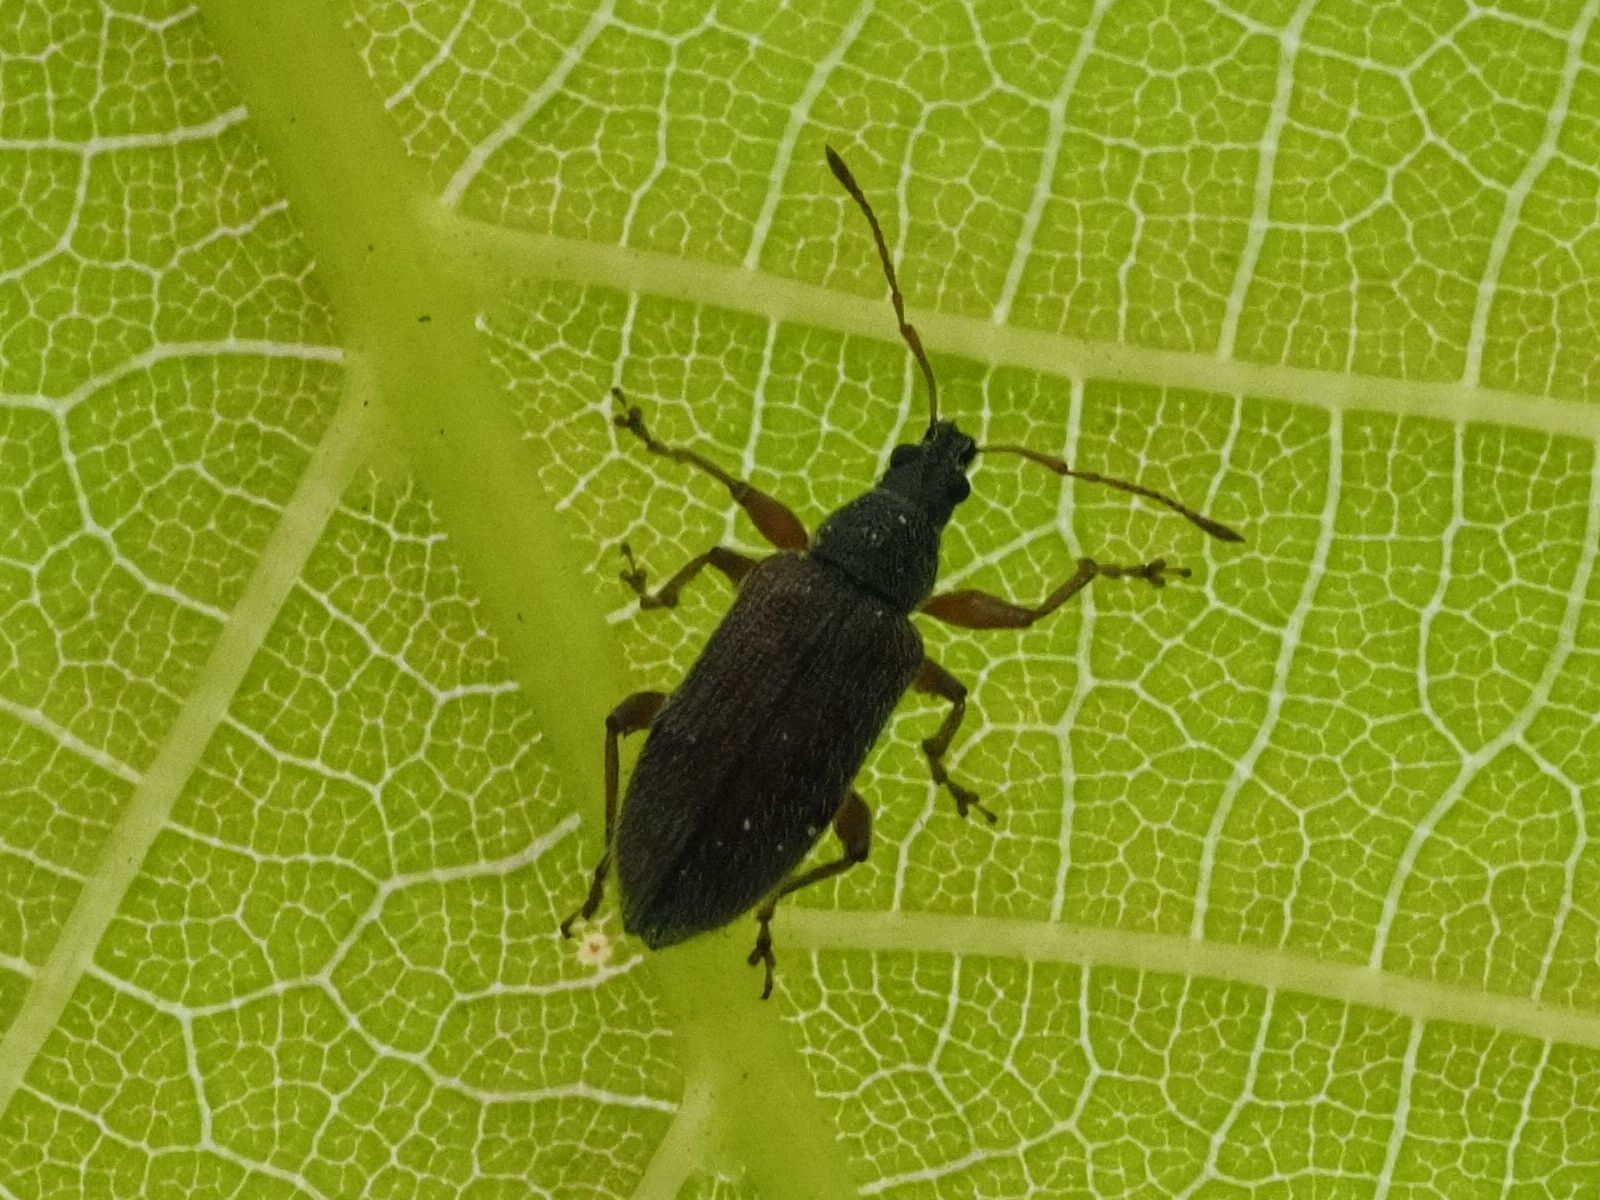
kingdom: Animalia
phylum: Arthropoda
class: Insecta
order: Coleoptera
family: Curculionidae
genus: Phyllobius
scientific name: Phyllobius oblongus
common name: Brown leaf weevil
